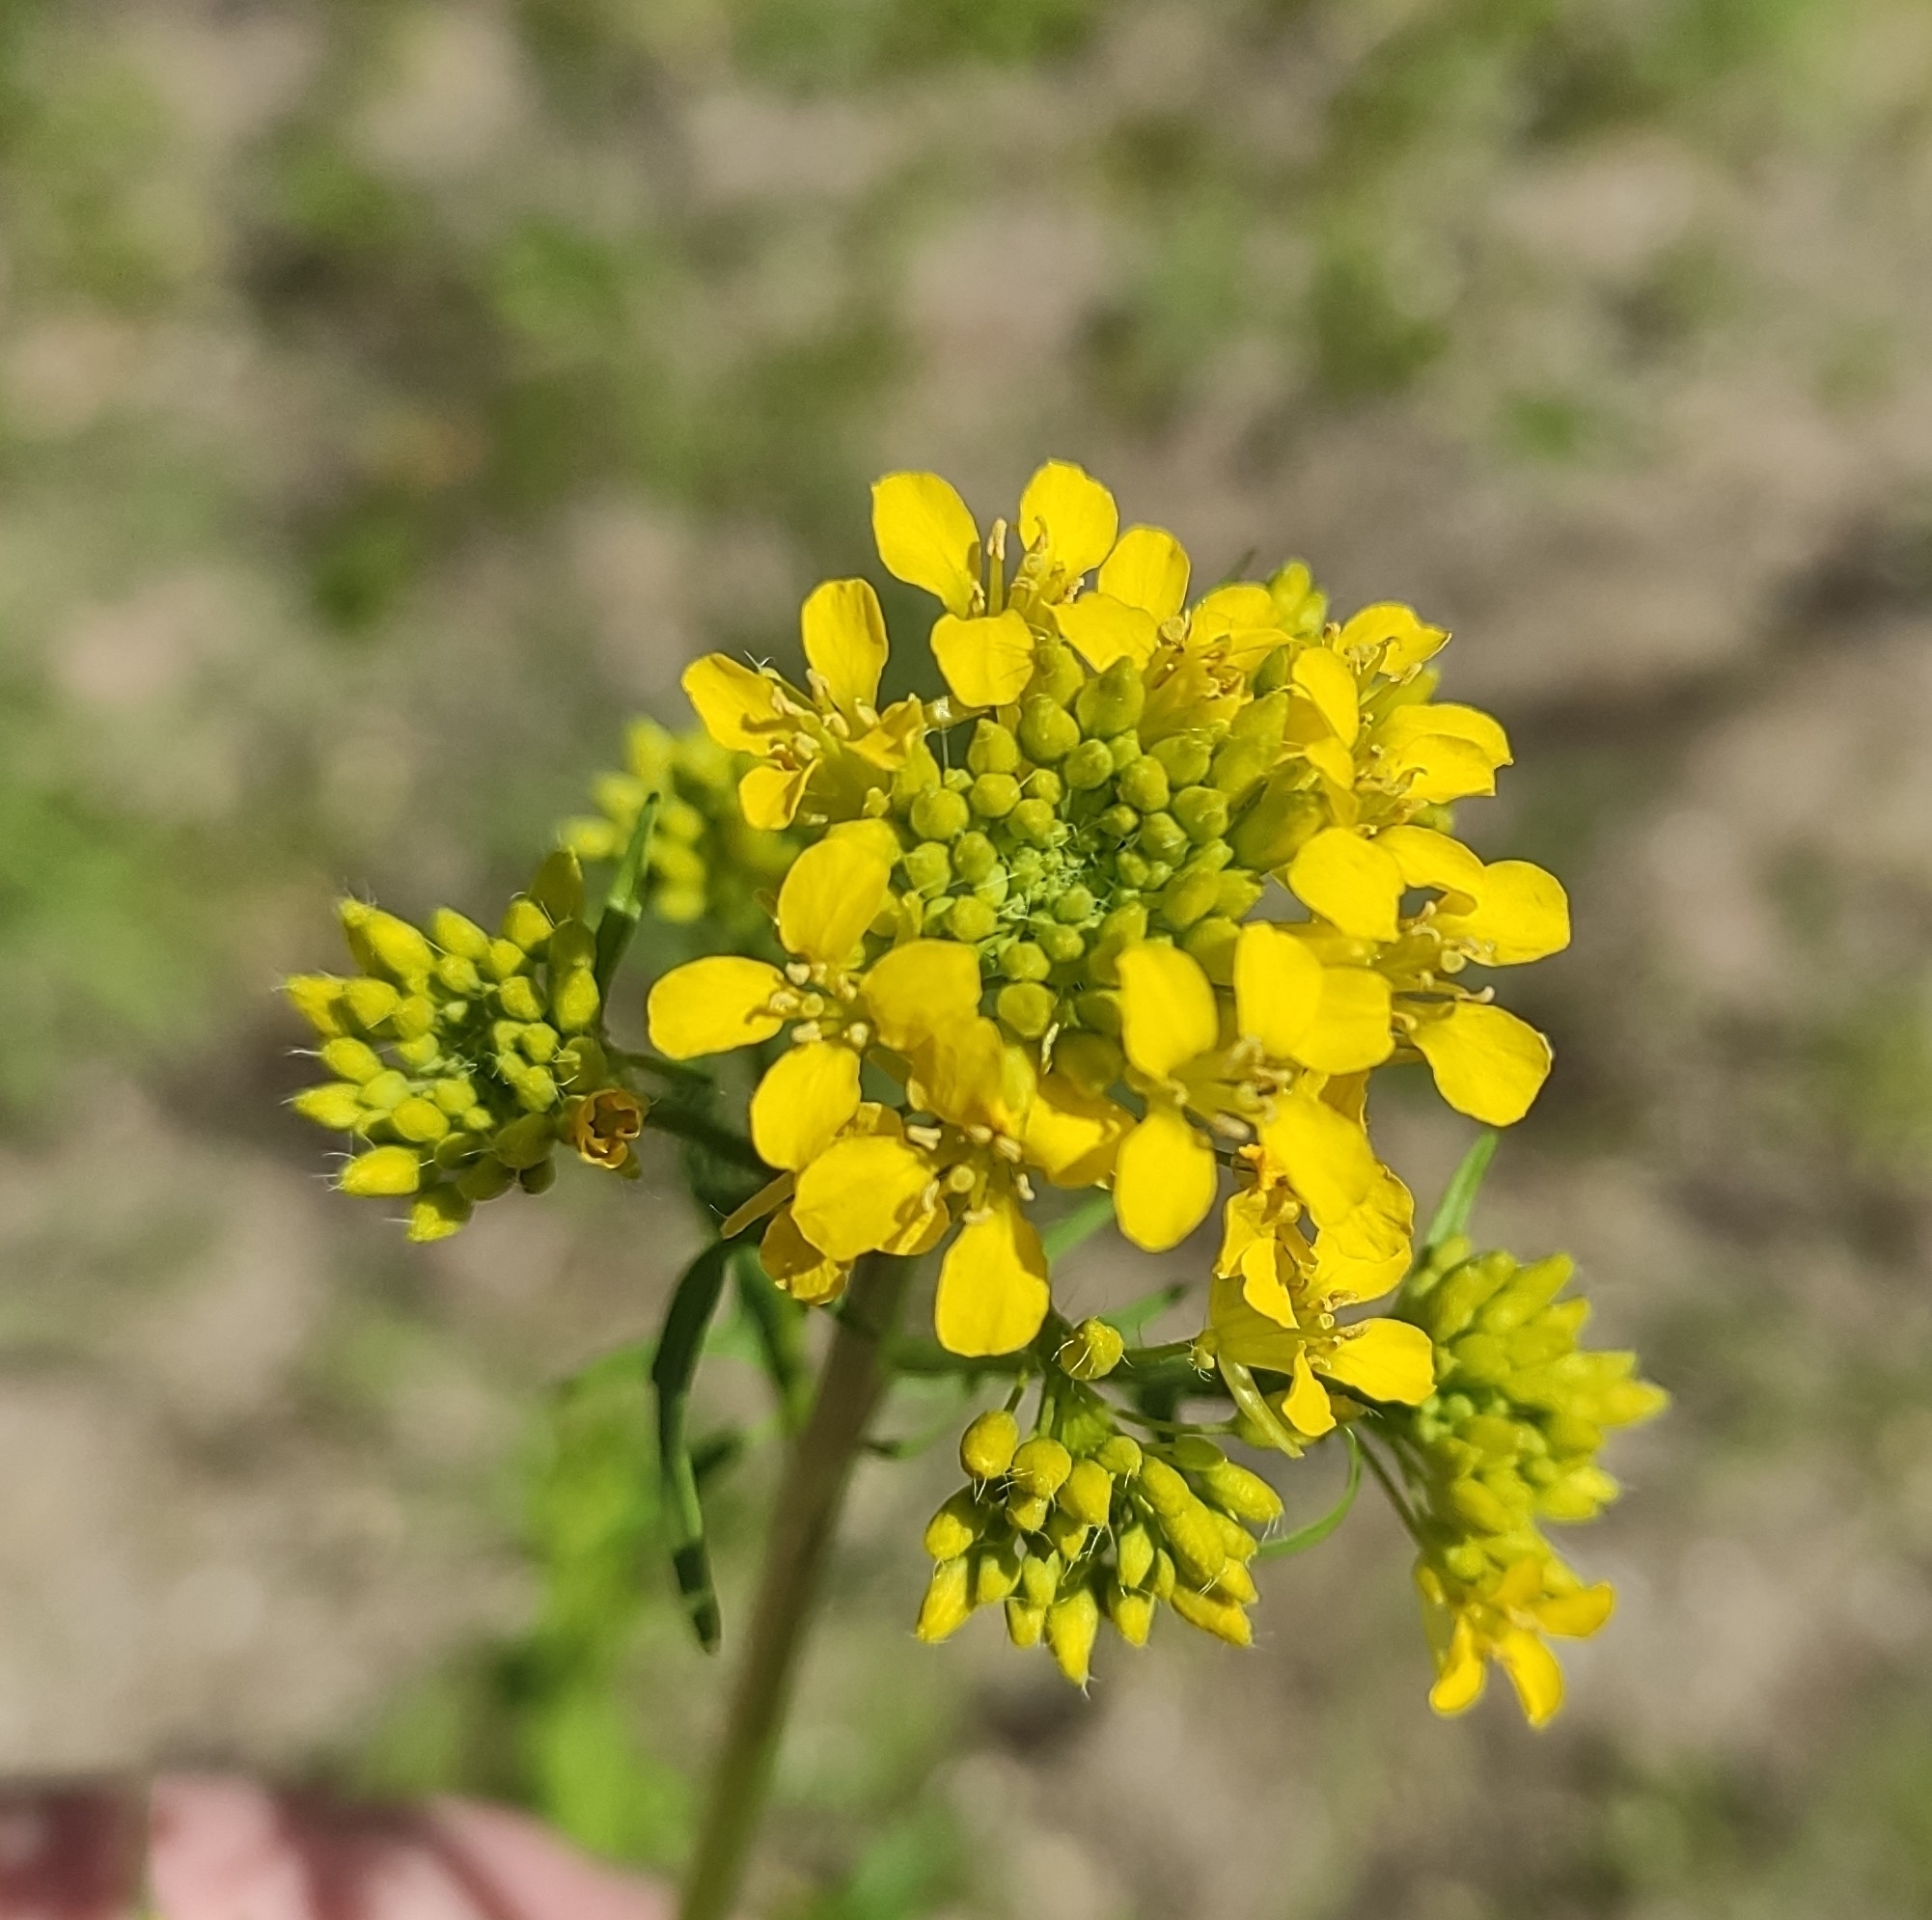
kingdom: Plantae
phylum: Tracheophyta
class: Magnoliopsida
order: Brassicales
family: Brassicaceae
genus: Sisymbrium
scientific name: Sisymbrium loeselii
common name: False london-rocket
